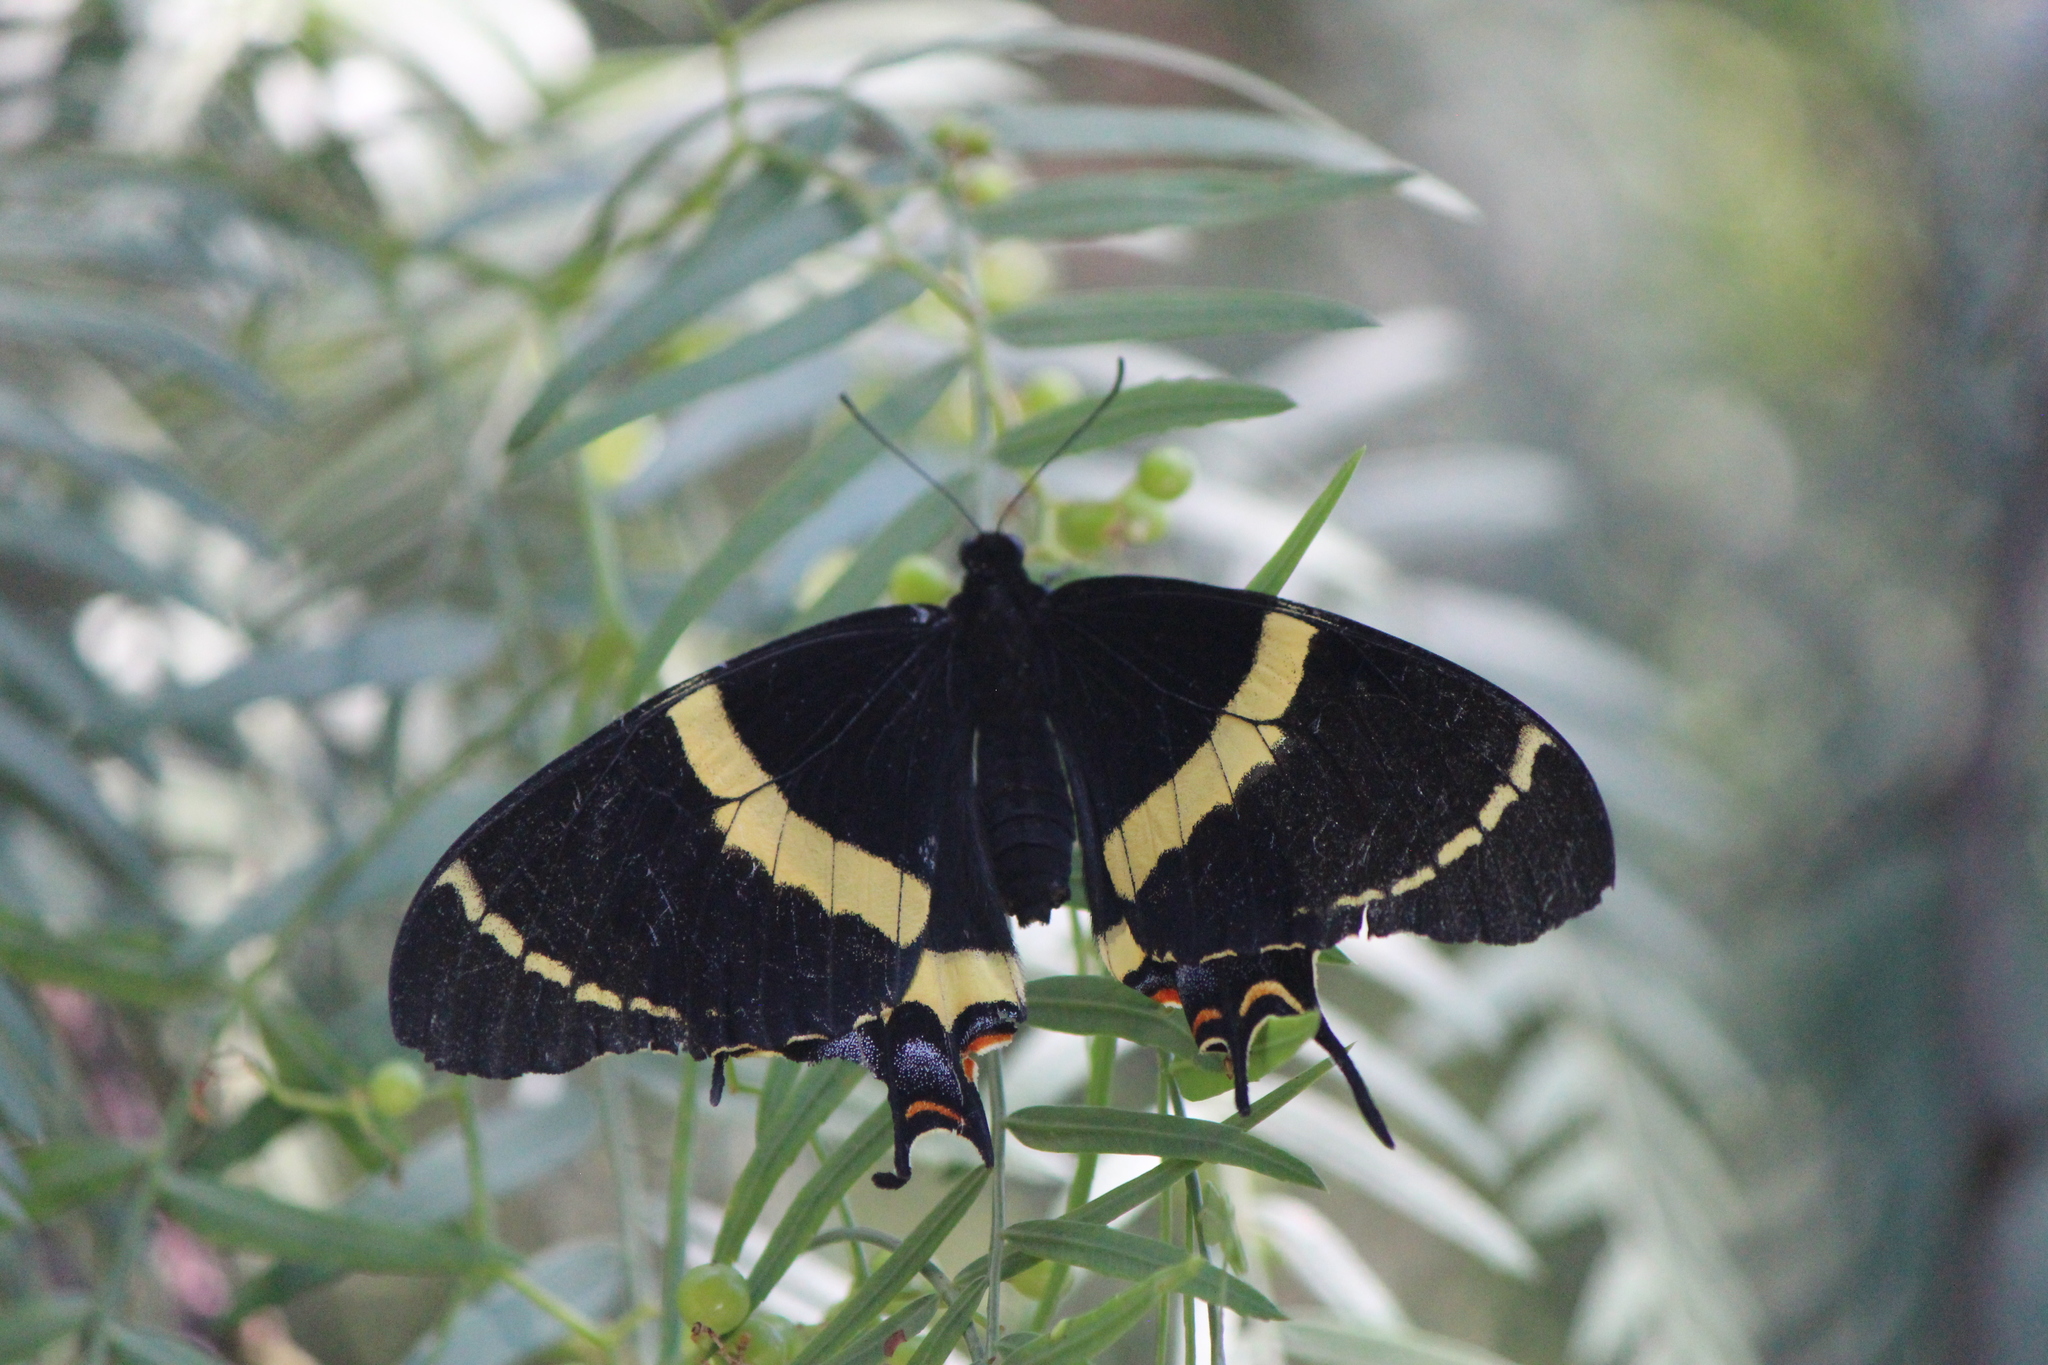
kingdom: Animalia
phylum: Arthropoda
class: Insecta
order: Lepidoptera
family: Papilionidae
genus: Papilio
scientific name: Papilio garamas
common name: Magnificent swallowtail
